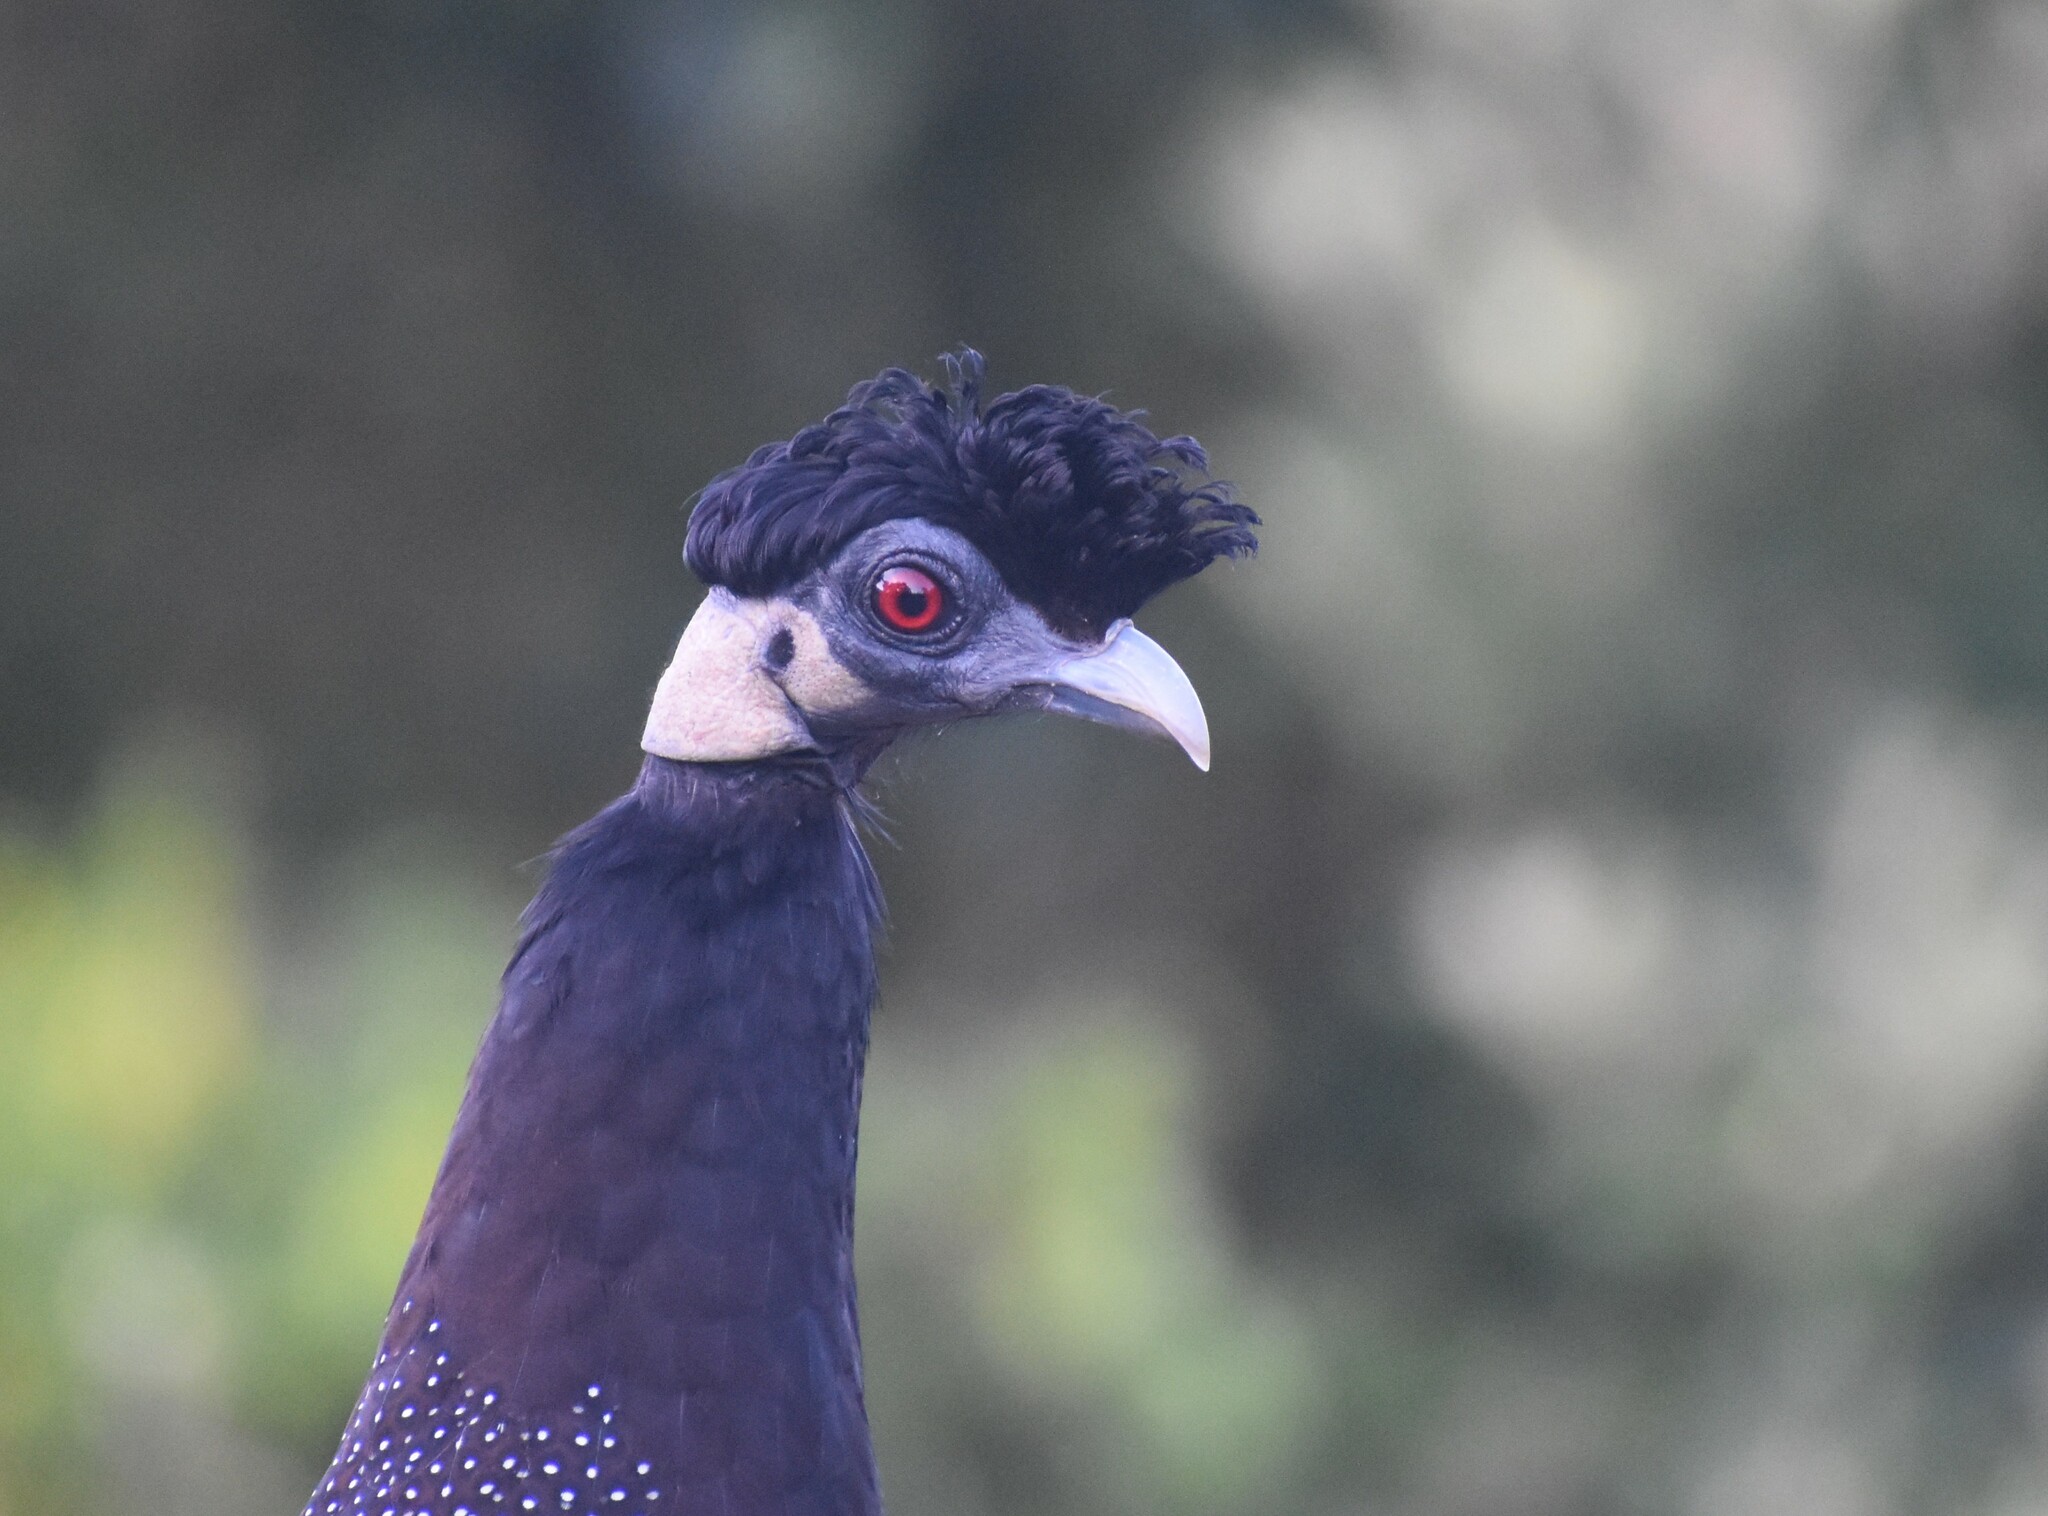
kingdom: Animalia
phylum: Chordata
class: Aves
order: Galliformes
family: Numididae
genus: Guttera
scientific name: Guttera pucherani
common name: Crested guineafowl
